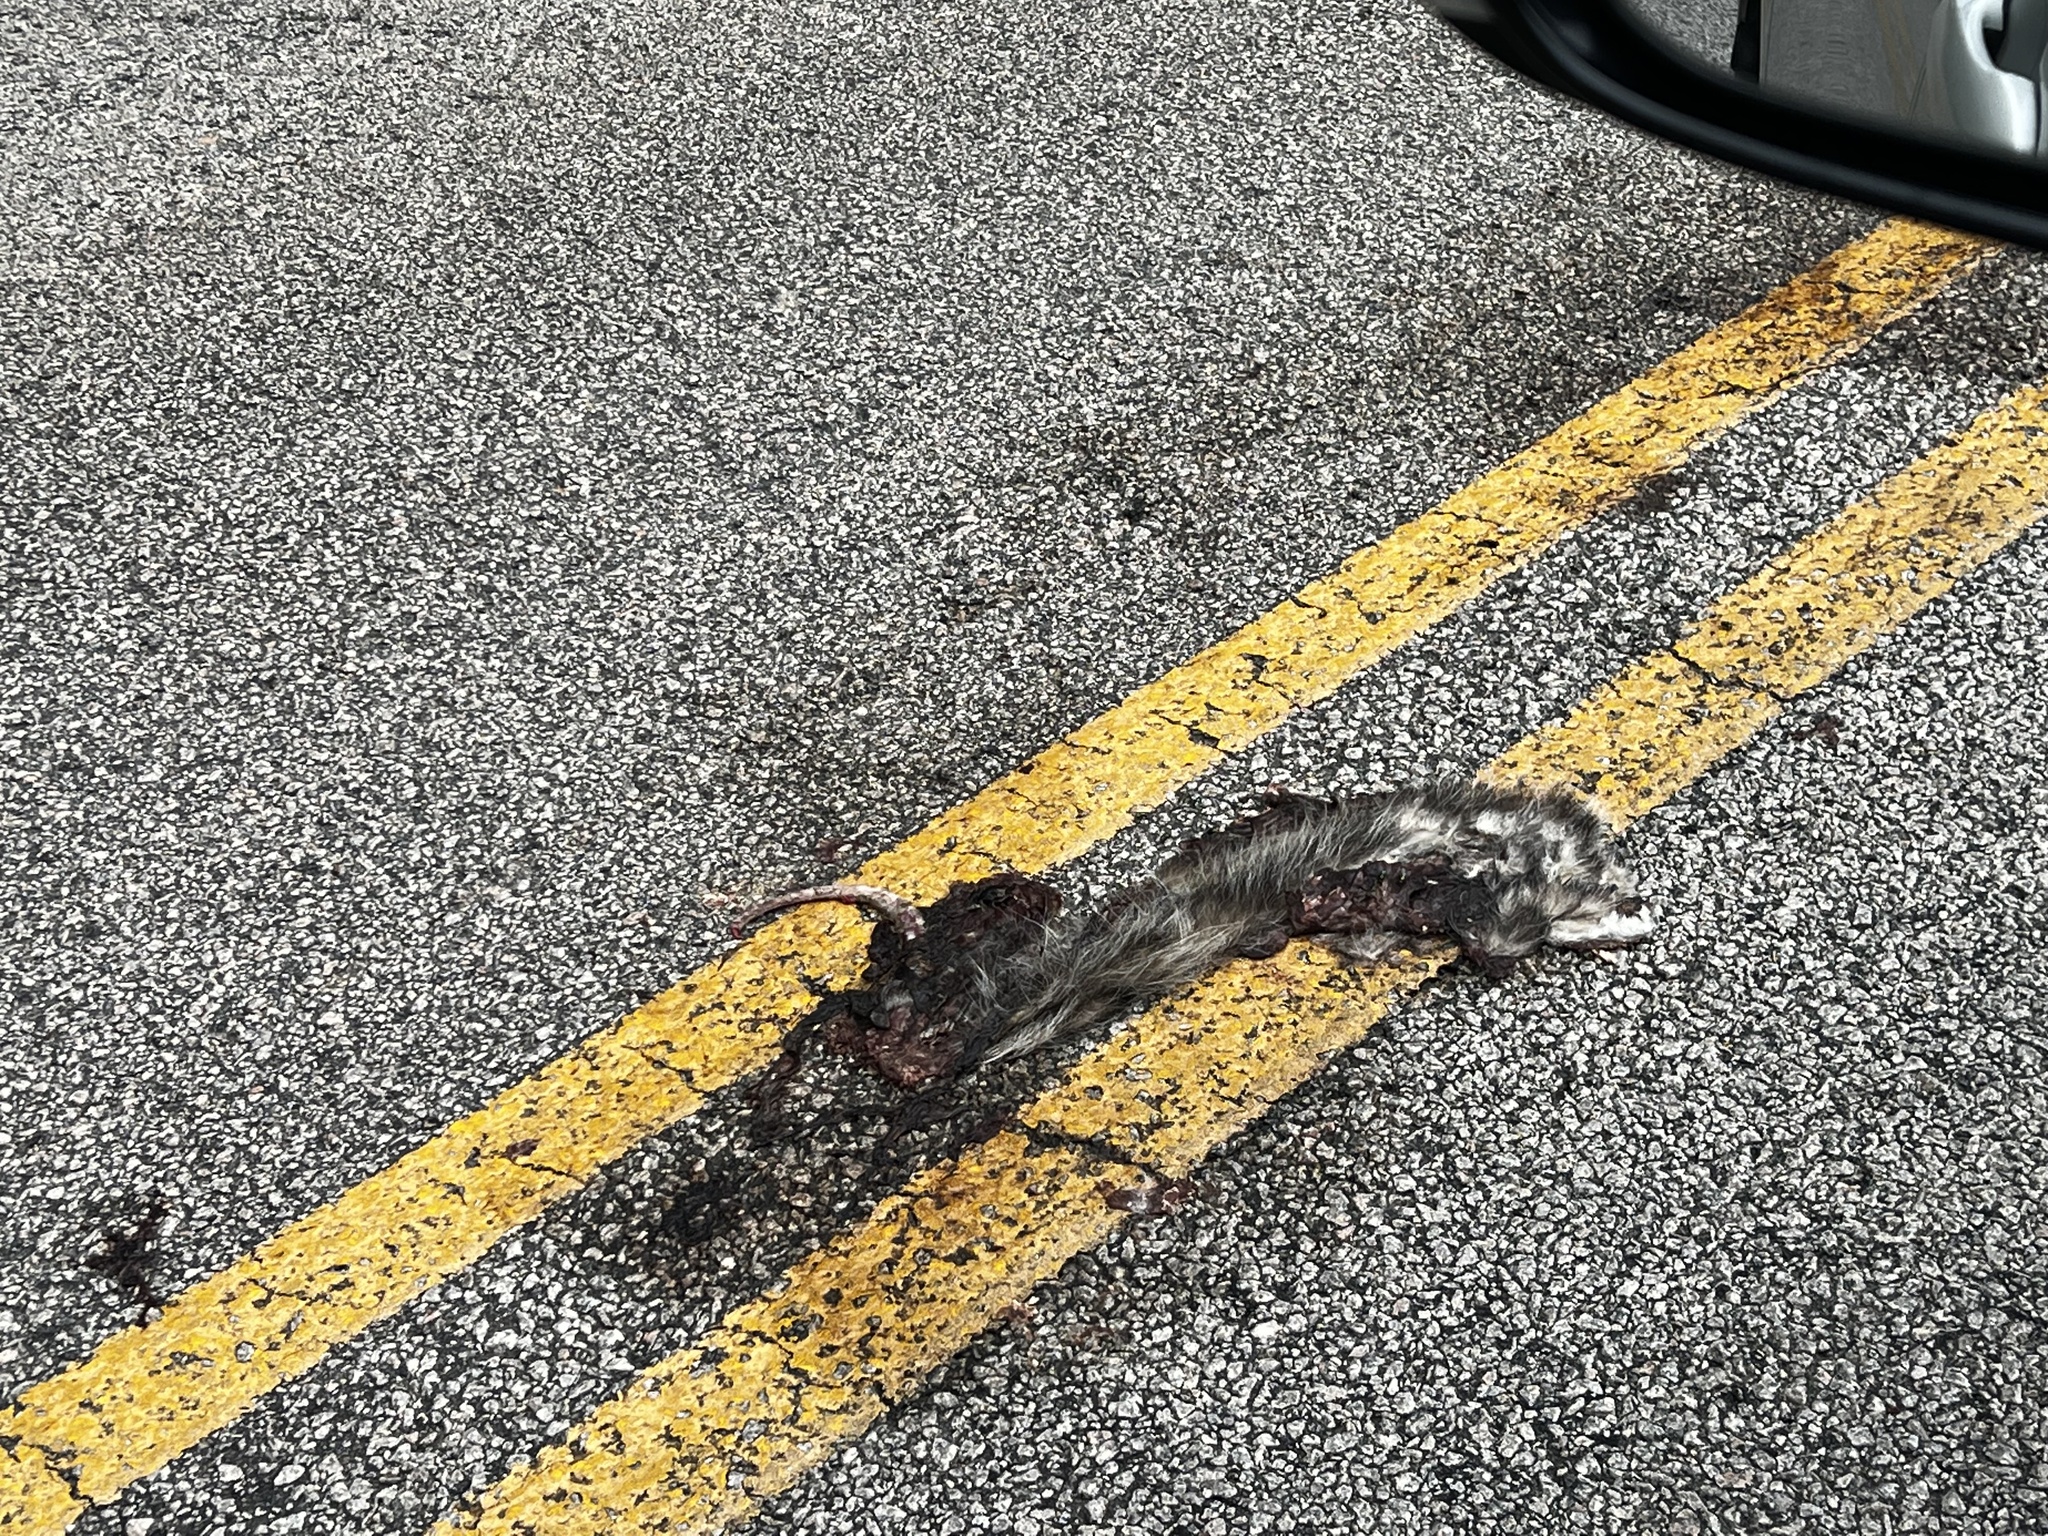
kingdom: Animalia
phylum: Chordata
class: Mammalia
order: Didelphimorphia
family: Didelphidae
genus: Didelphis
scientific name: Didelphis virginiana
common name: Virginia opossum
